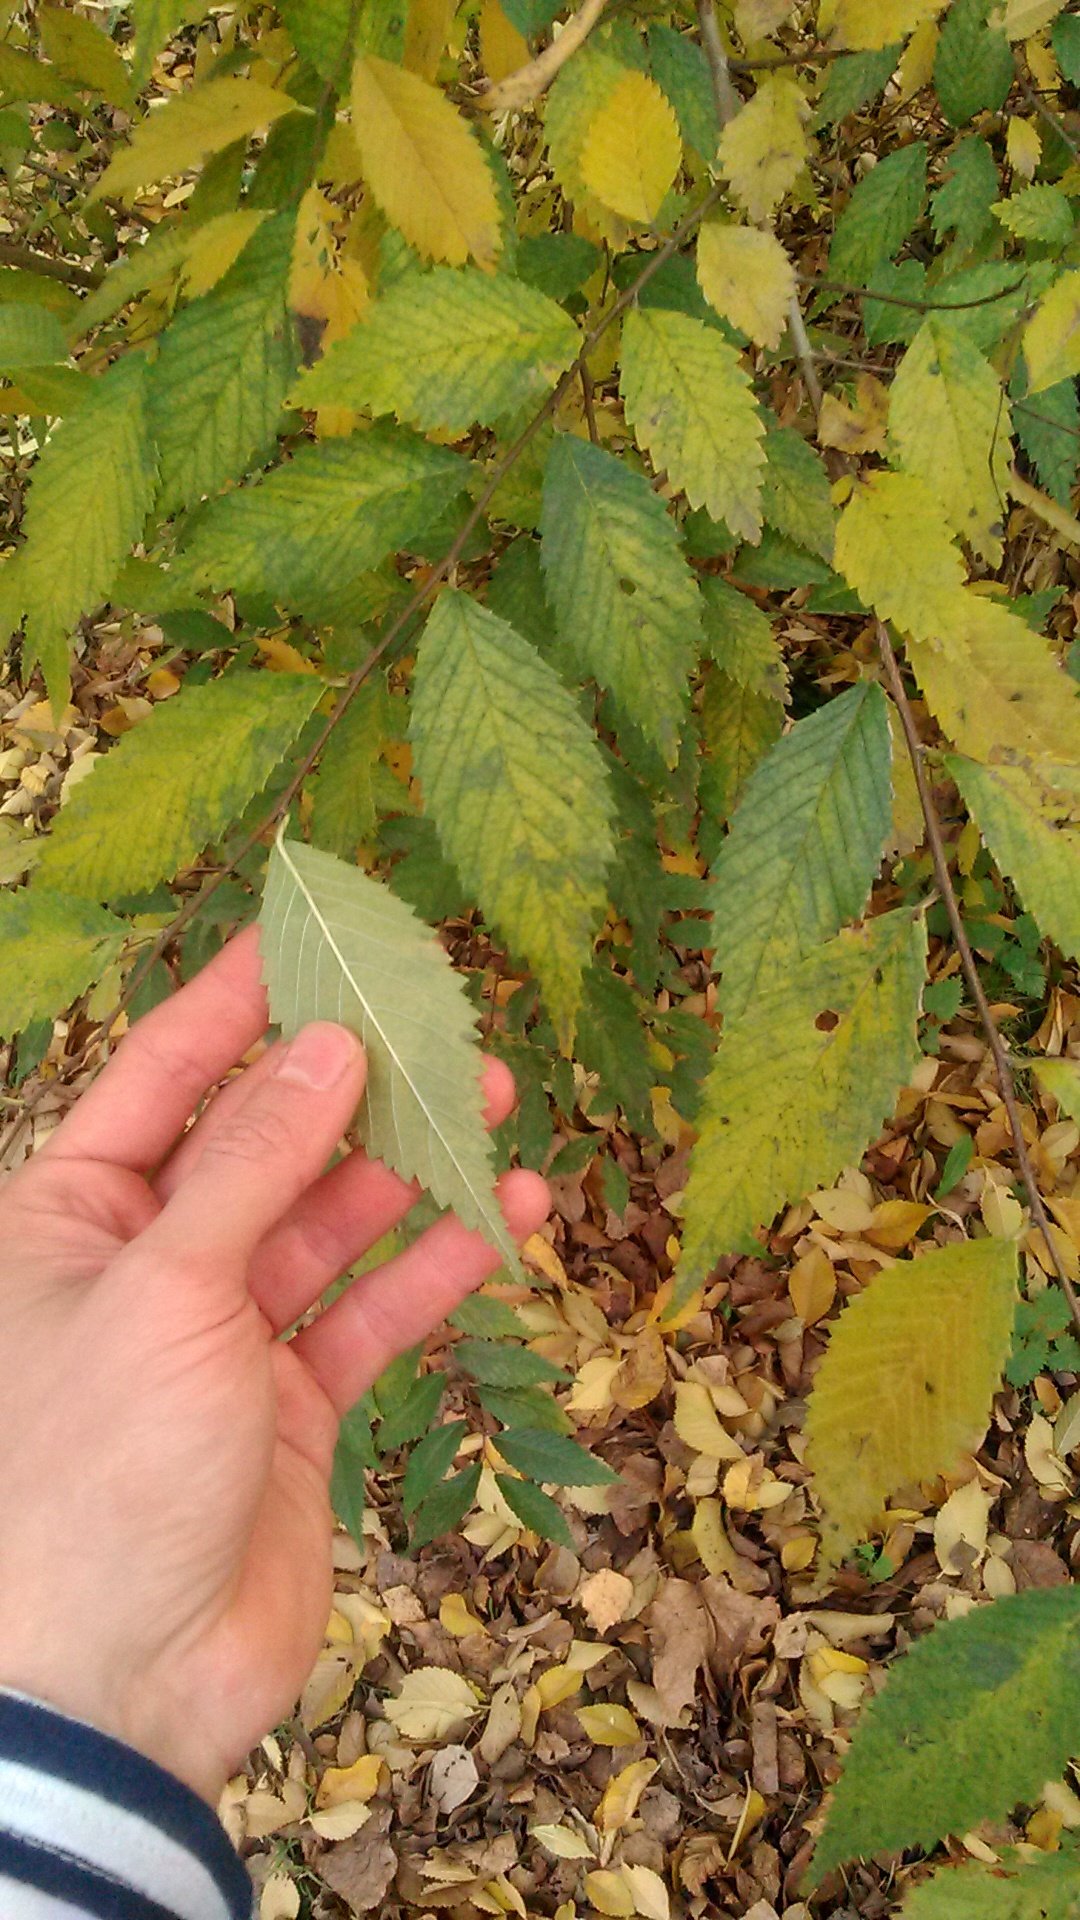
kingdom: Plantae
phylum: Tracheophyta
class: Magnoliopsida
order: Rosales
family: Ulmaceae
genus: Ulmus
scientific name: Ulmus pumila
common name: Siberian elm
